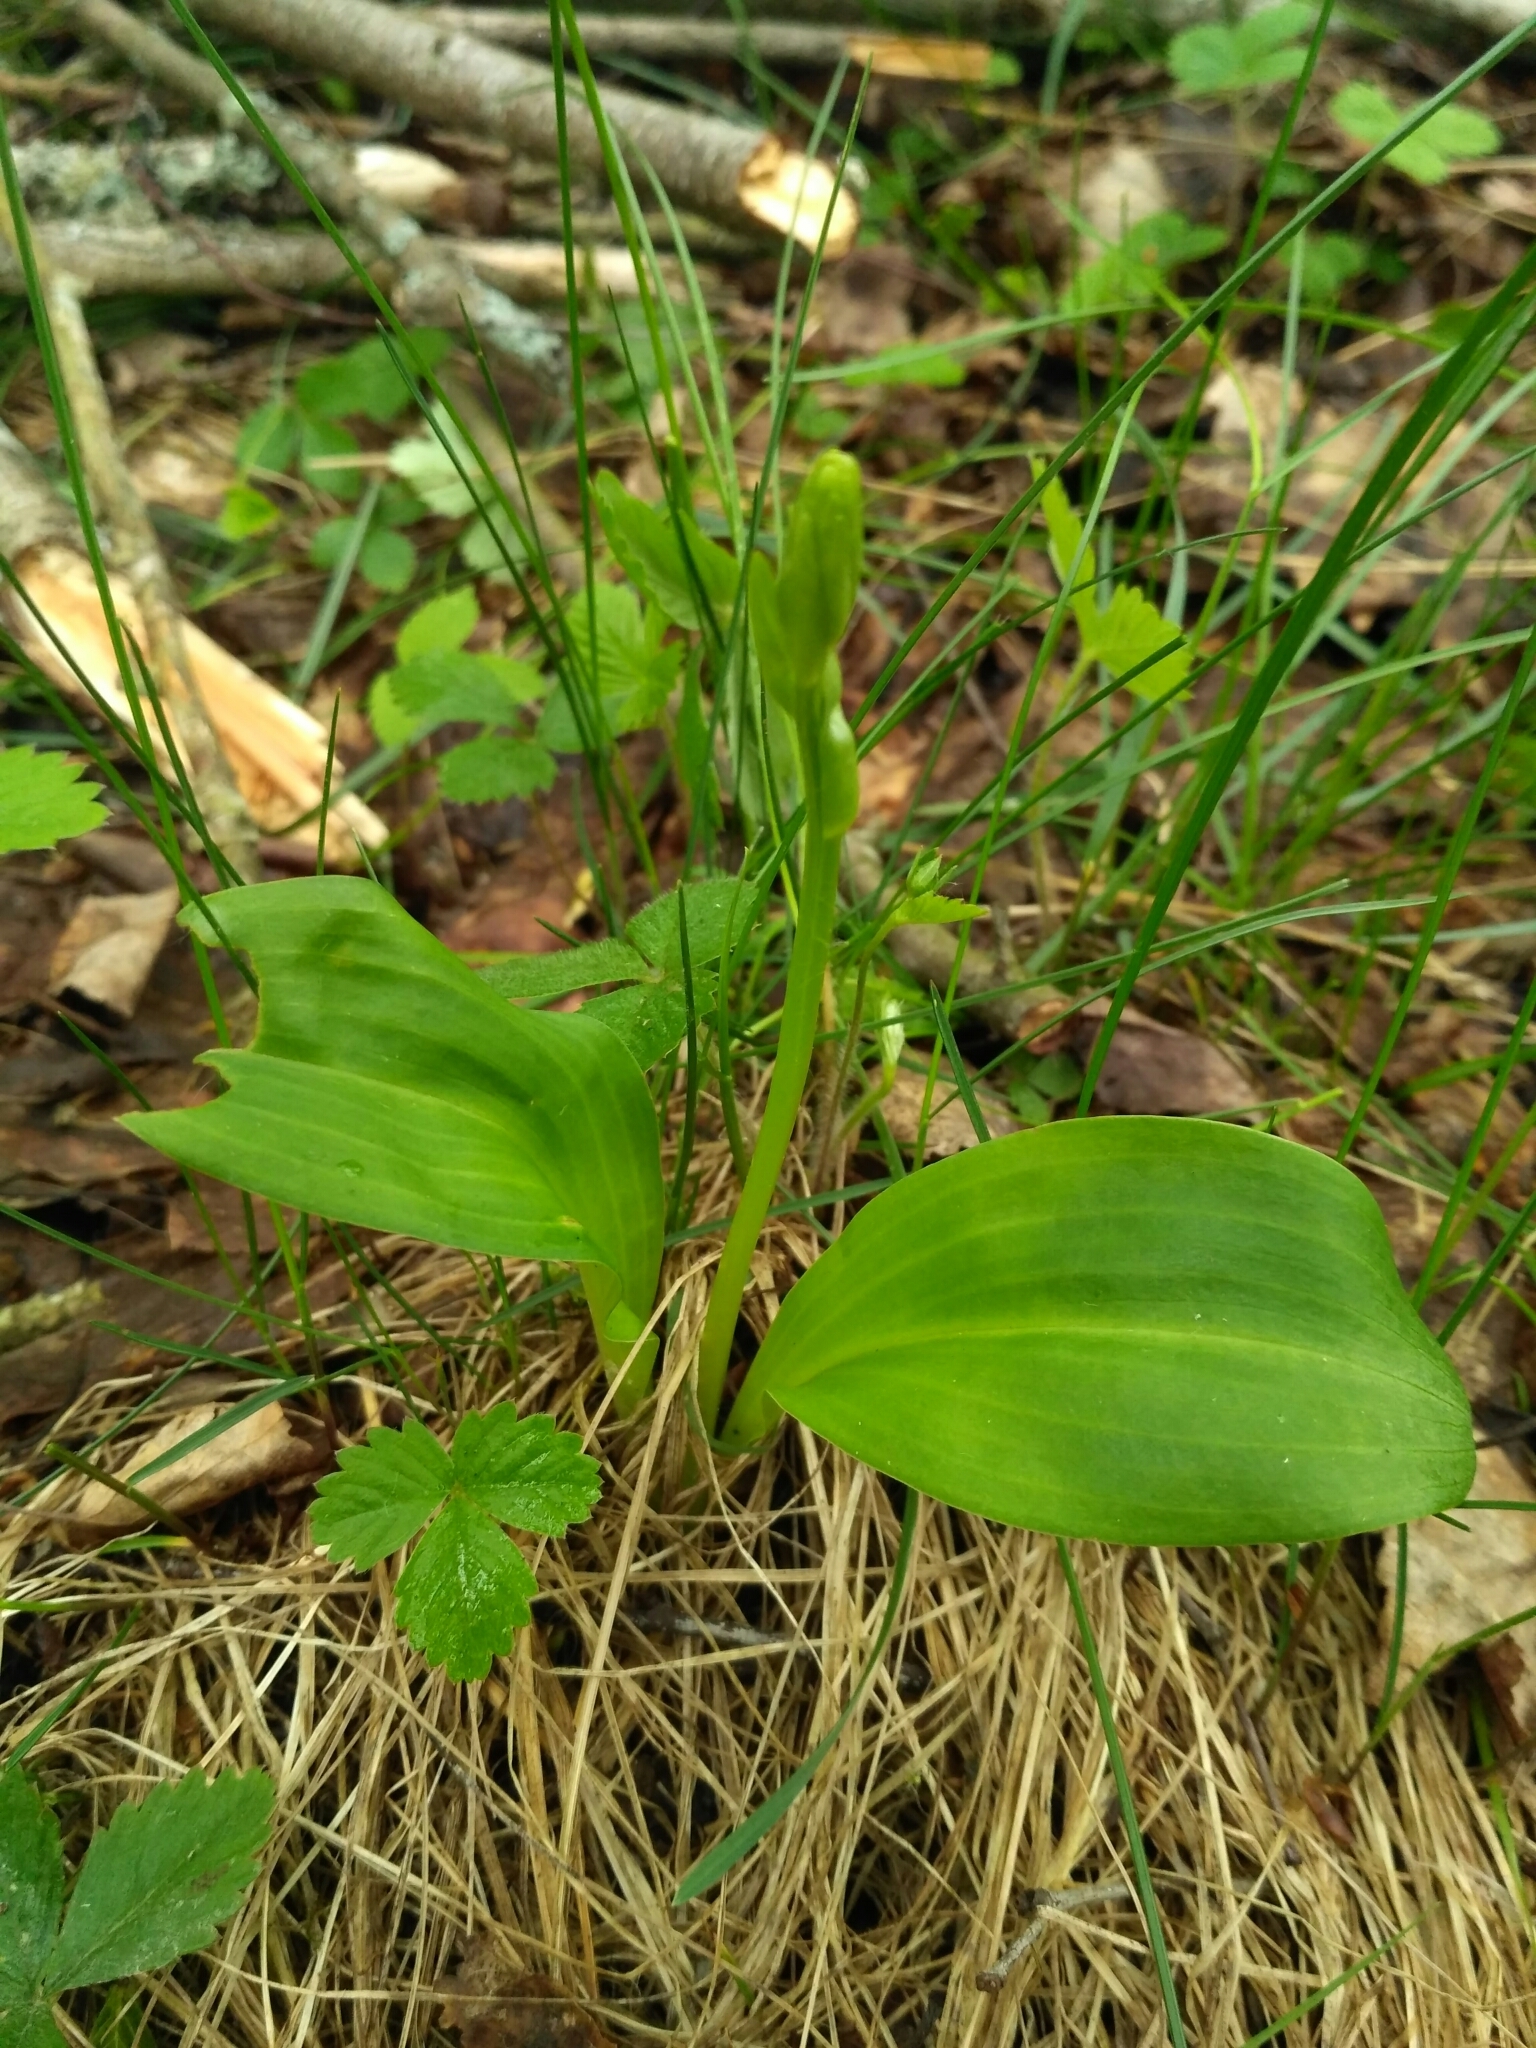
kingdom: Plantae
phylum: Tracheophyta
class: Liliopsida
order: Asparagales
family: Orchidaceae
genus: Platanthera
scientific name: Platanthera
